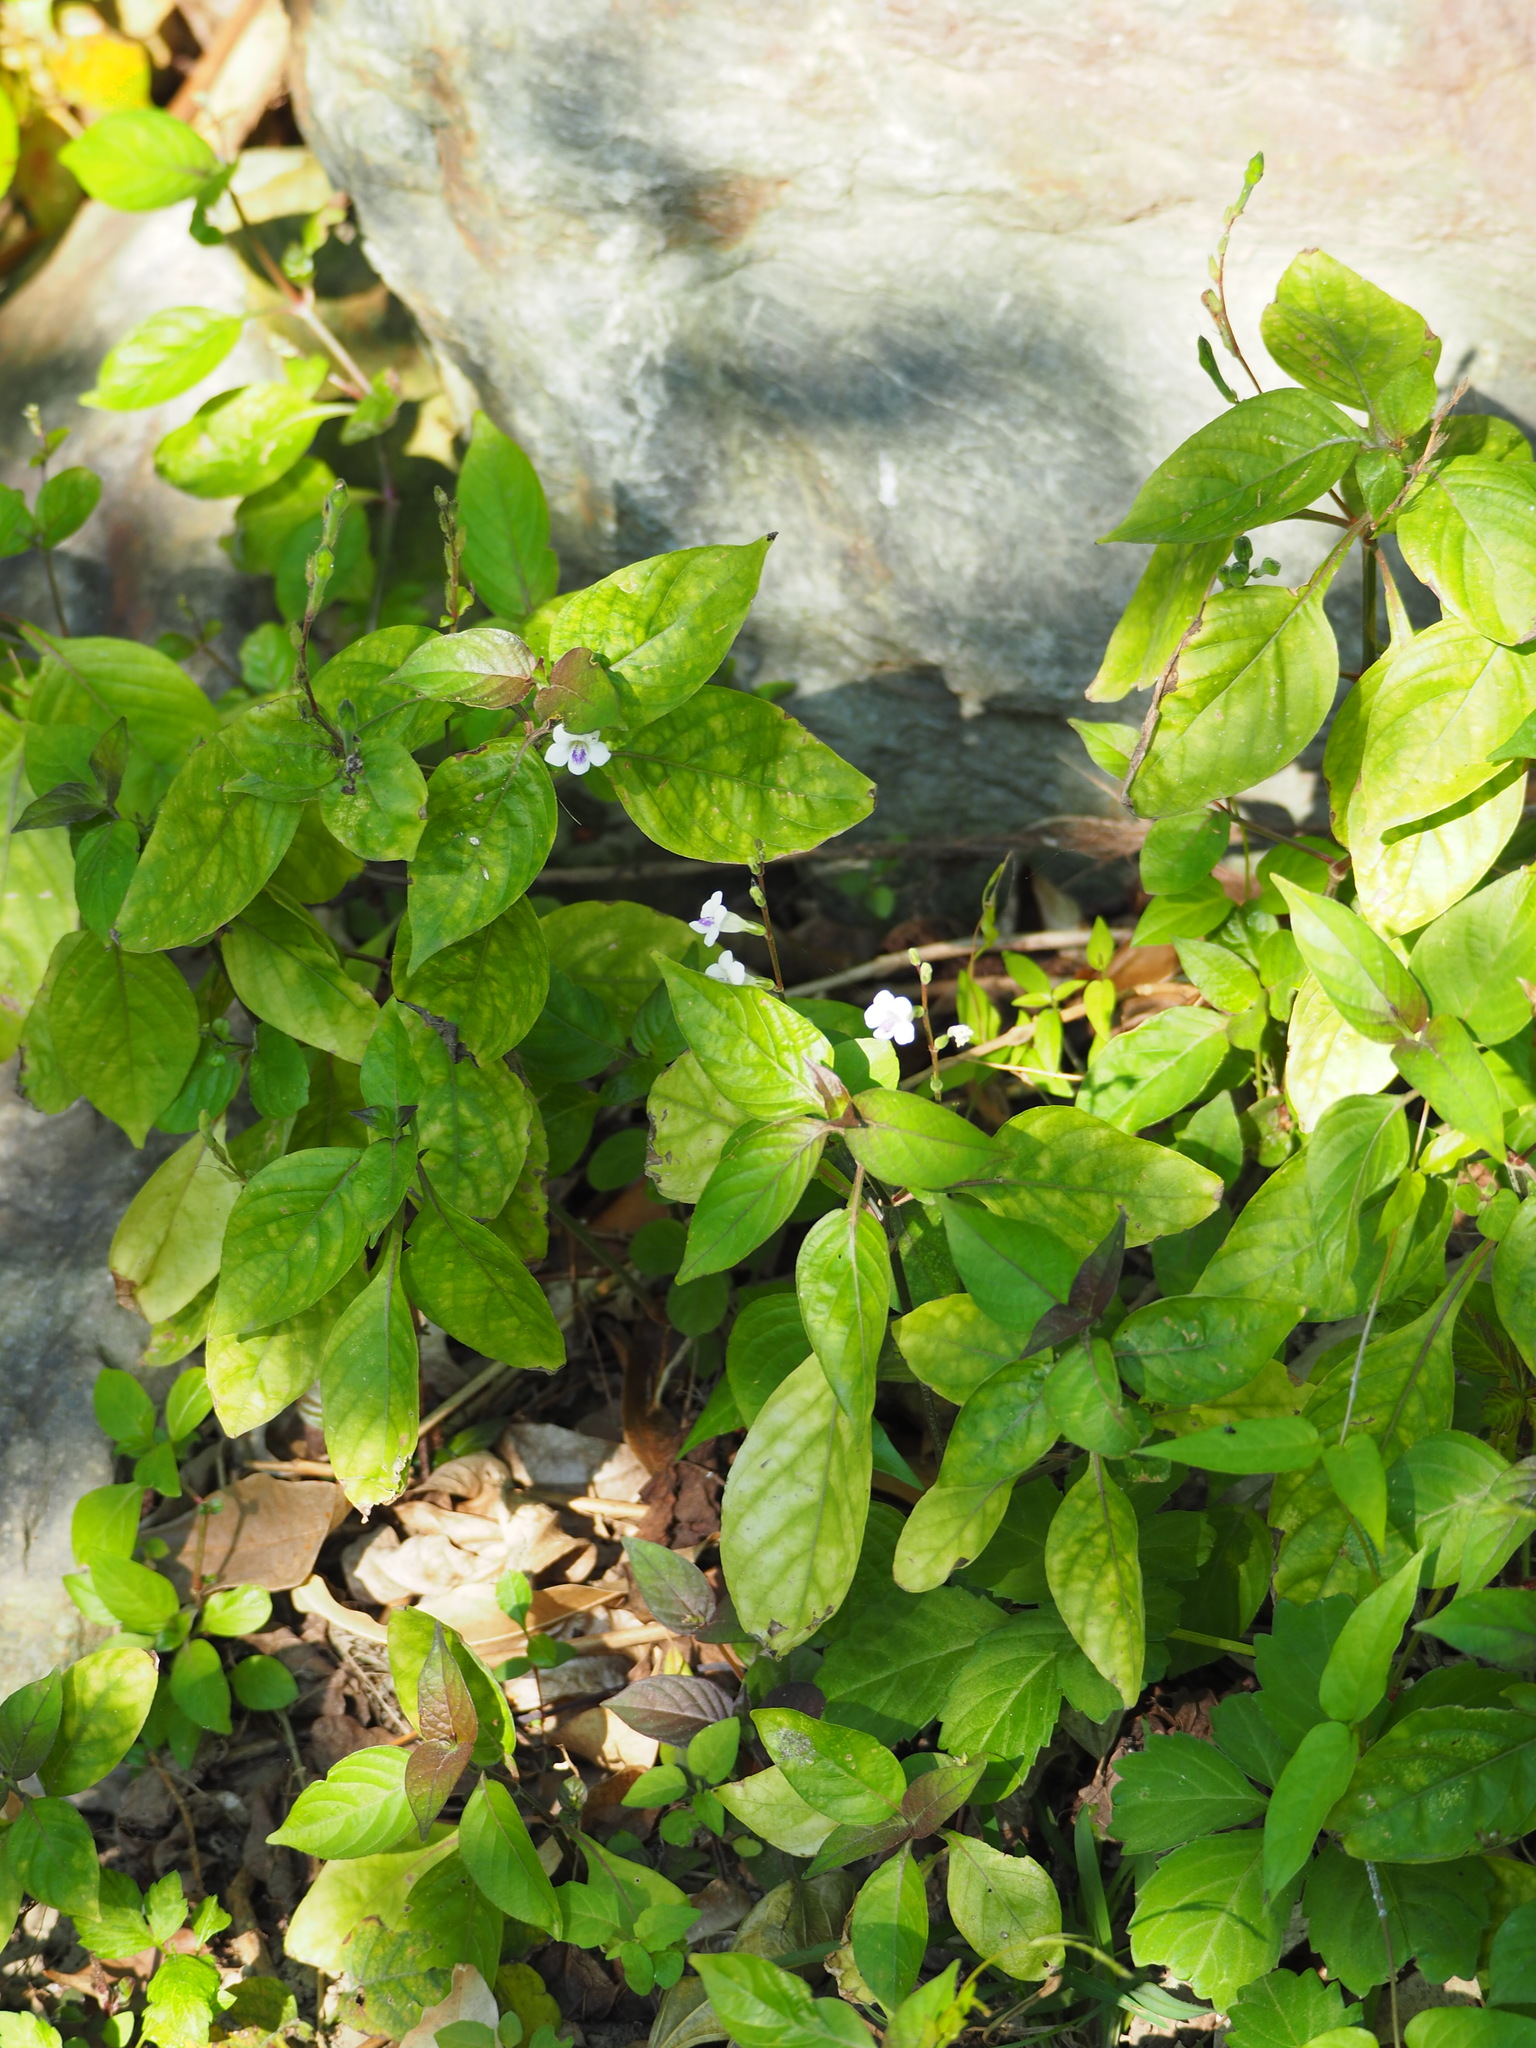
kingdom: Plantae
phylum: Tracheophyta
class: Magnoliopsida
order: Lamiales
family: Acanthaceae
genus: Asystasia
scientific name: Asystasia intrusa
